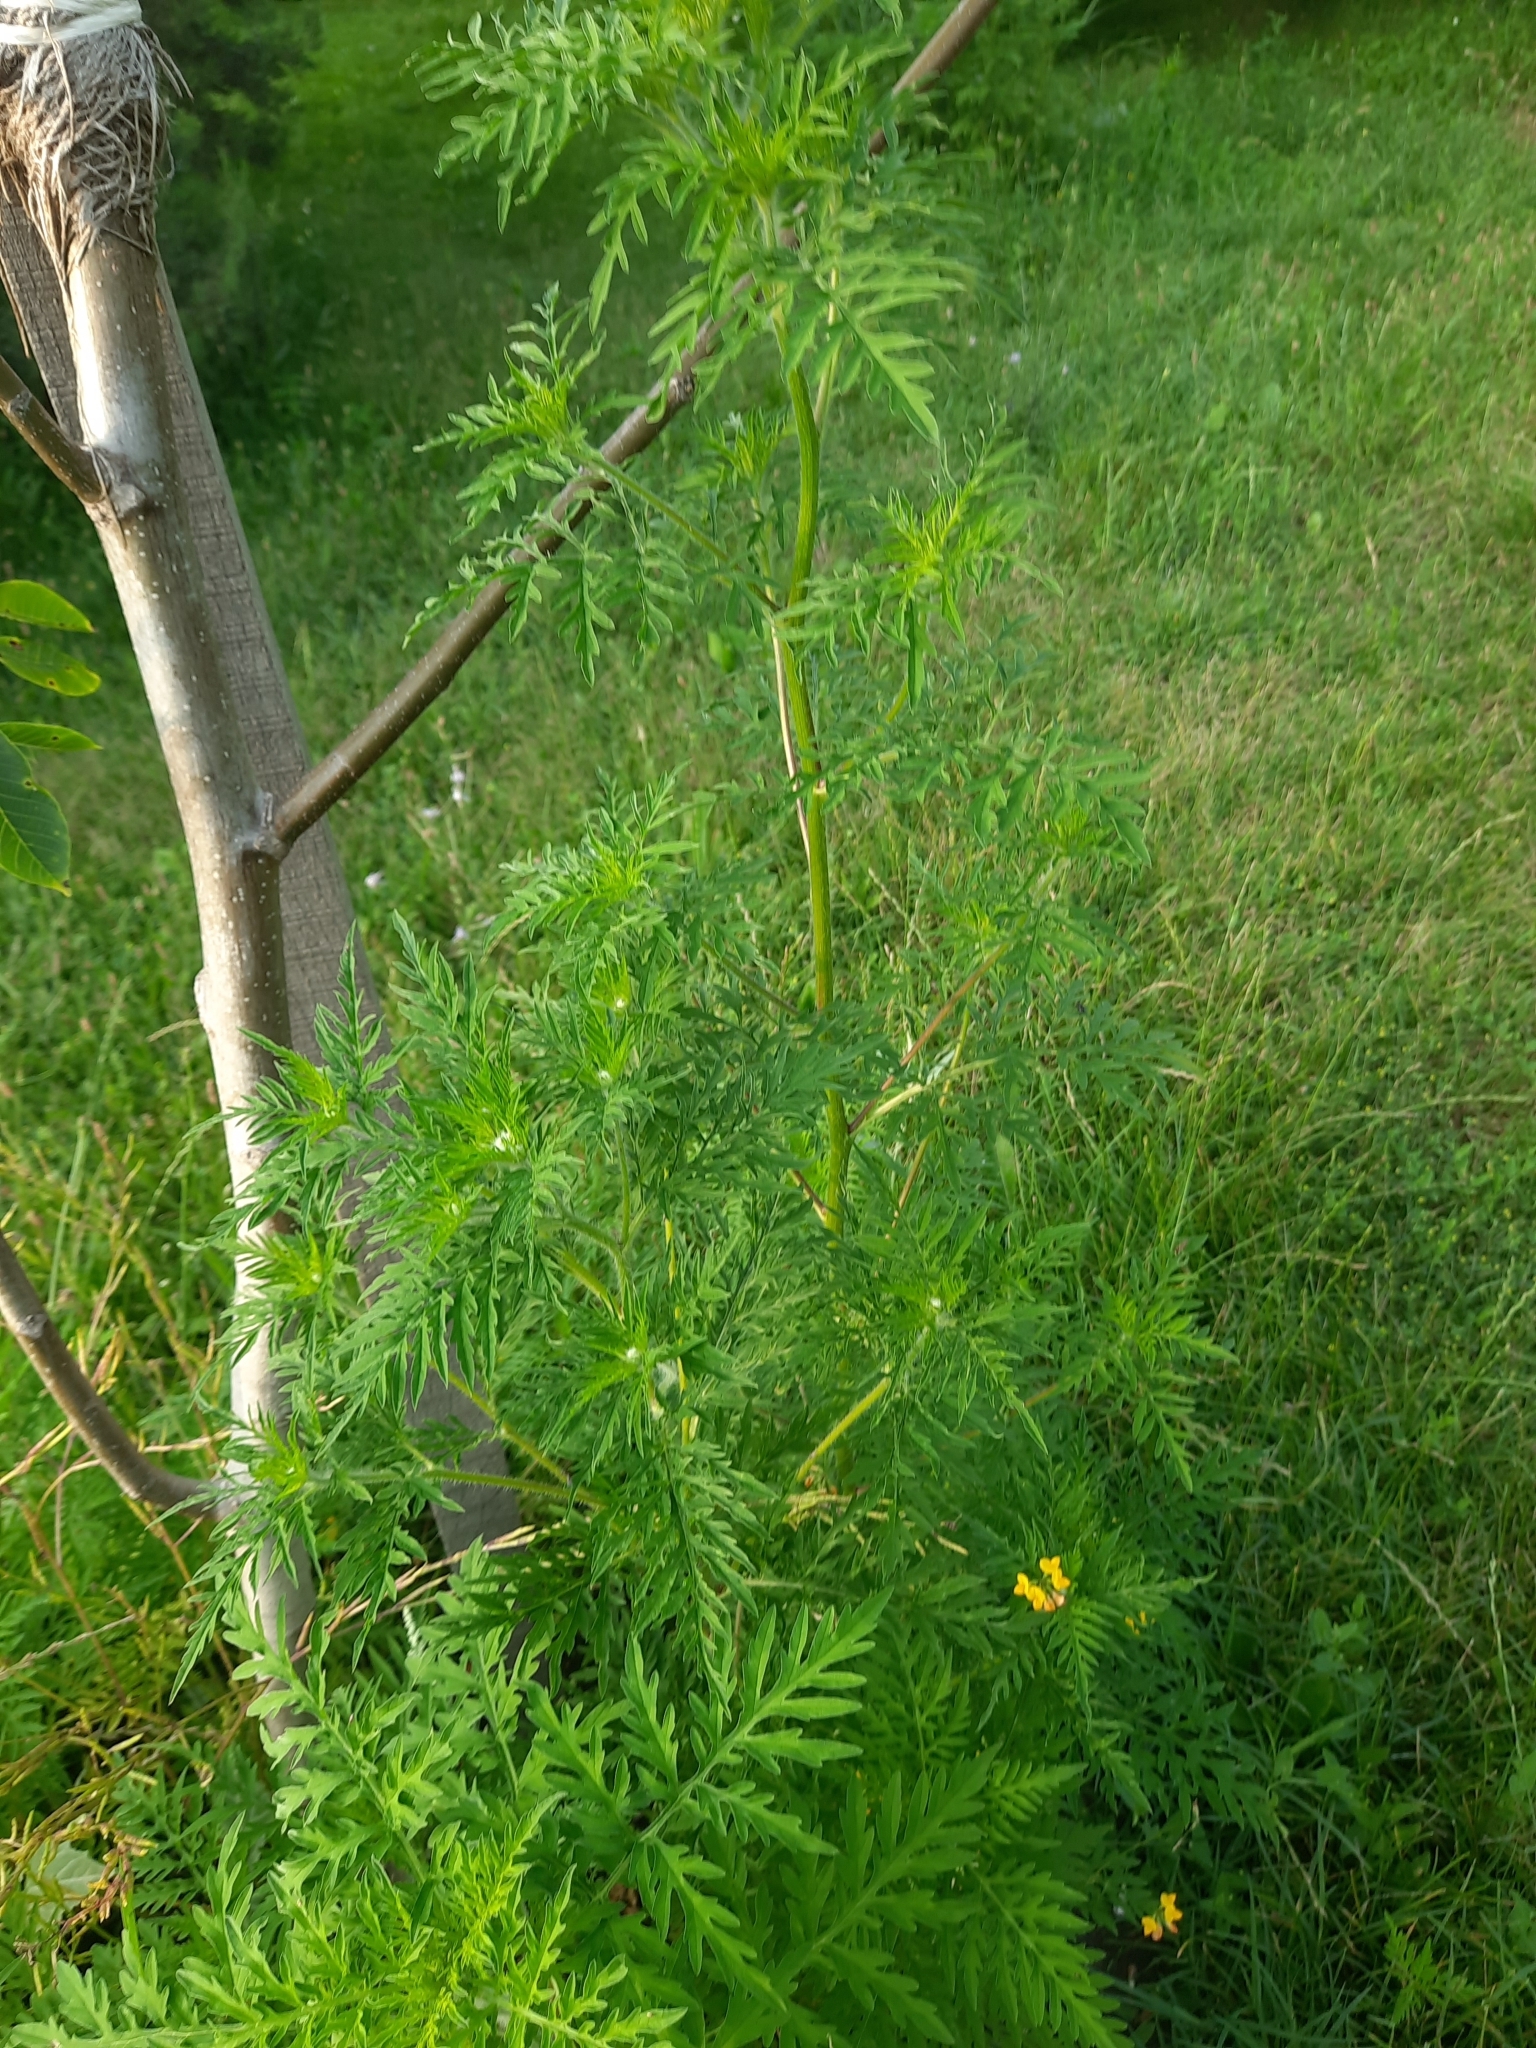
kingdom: Plantae
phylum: Tracheophyta
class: Magnoliopsida
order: Asterales
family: Asteraceae
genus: Ambrosia
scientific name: Ambrosia artemisiifolia
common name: Annual ragweed
